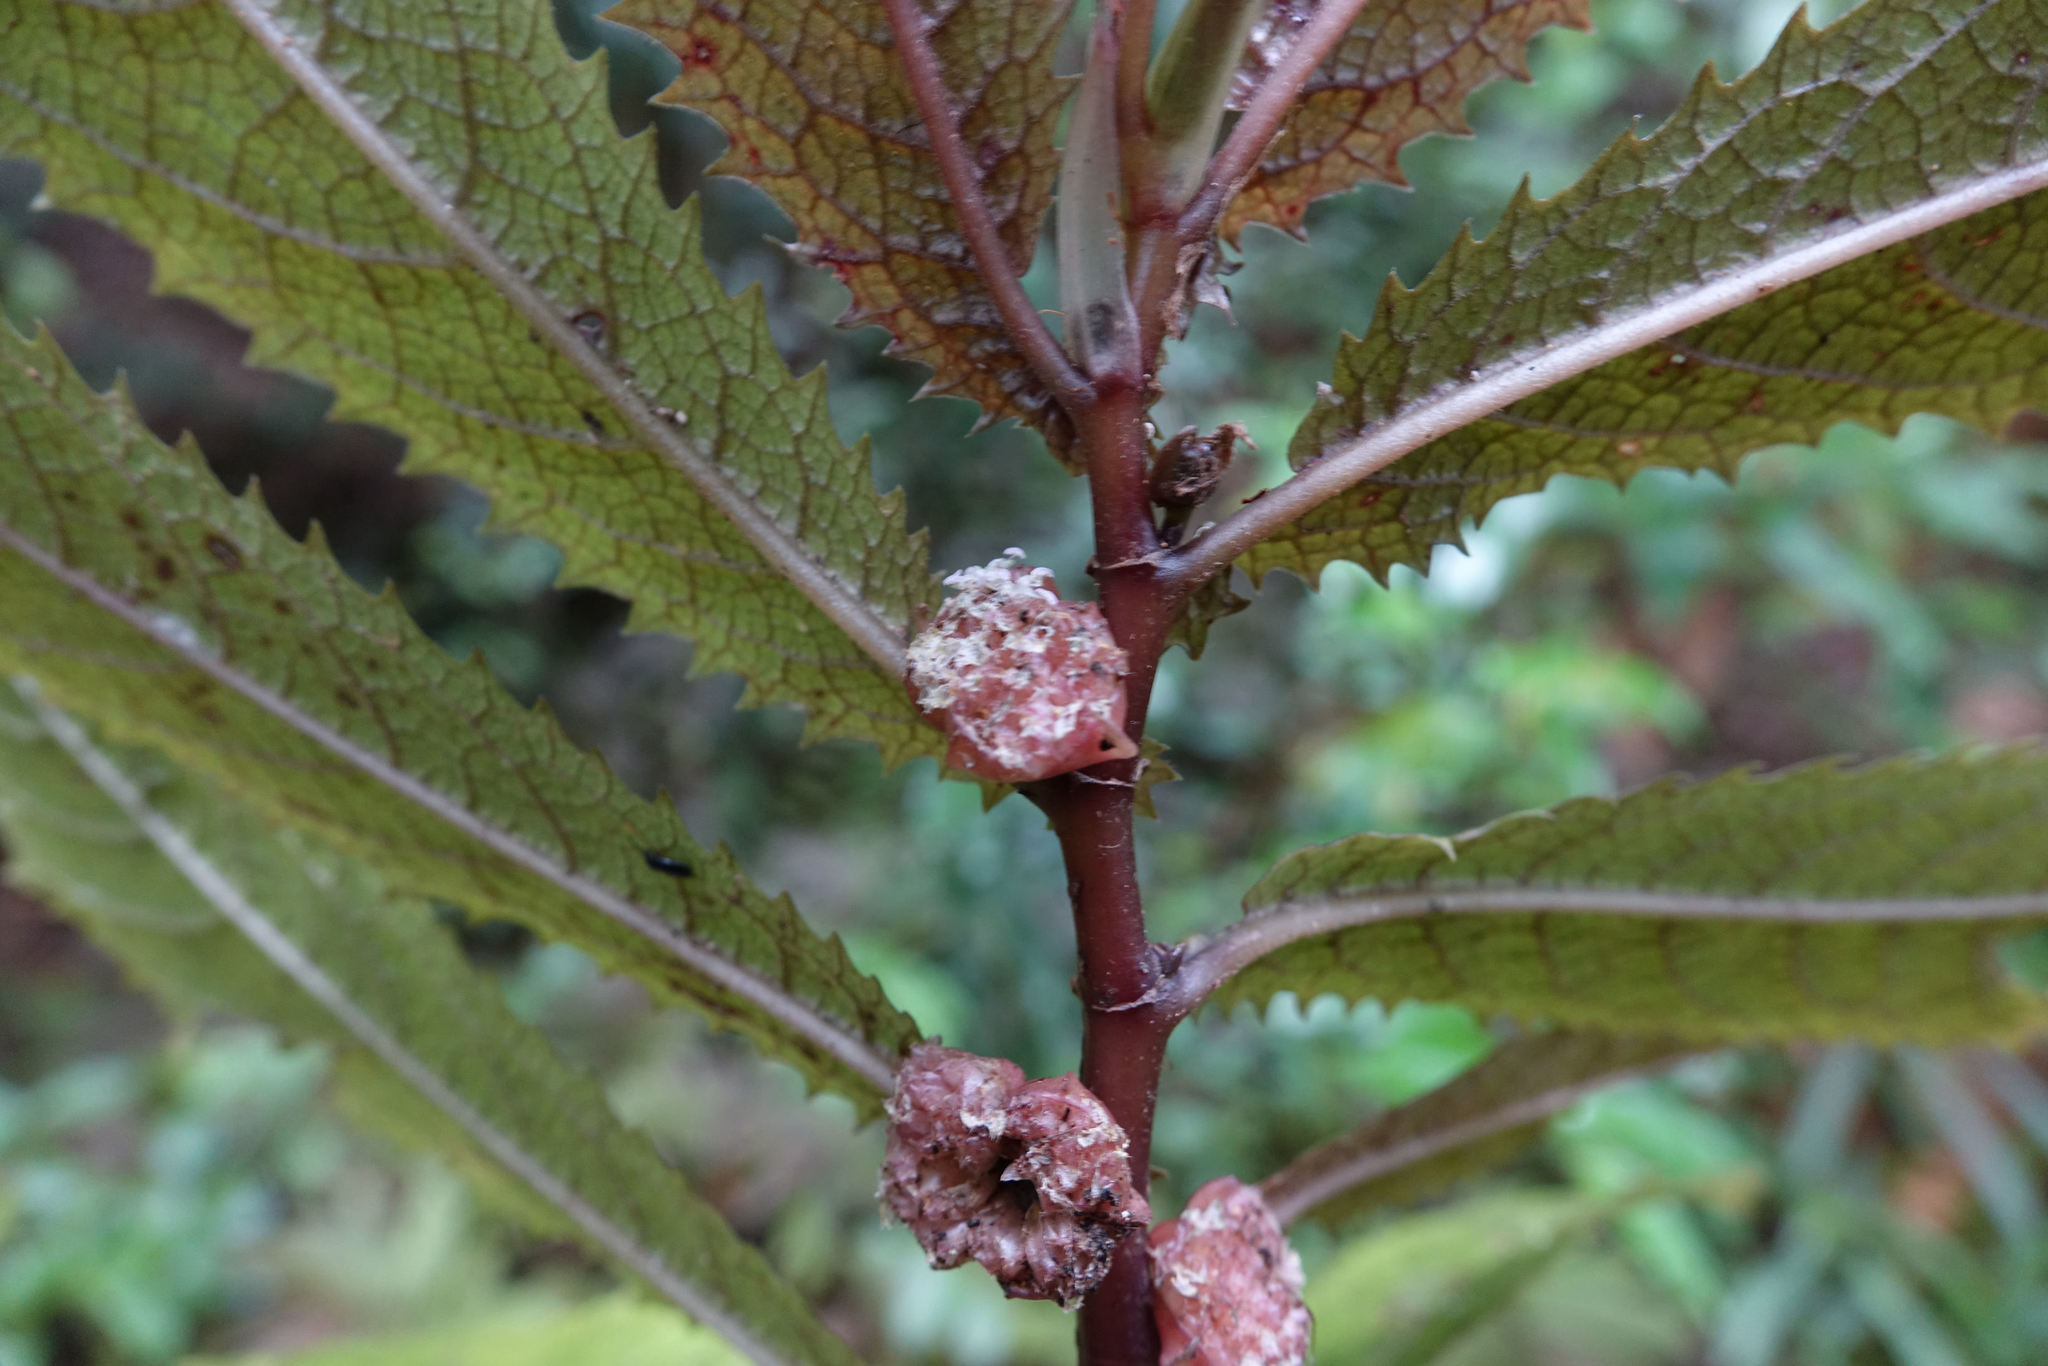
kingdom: Plantae
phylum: Tracheophyta
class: Magnoliopsida
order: Rosales
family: Urticaceae
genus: Elatostema
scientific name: Elatostema rugosum
